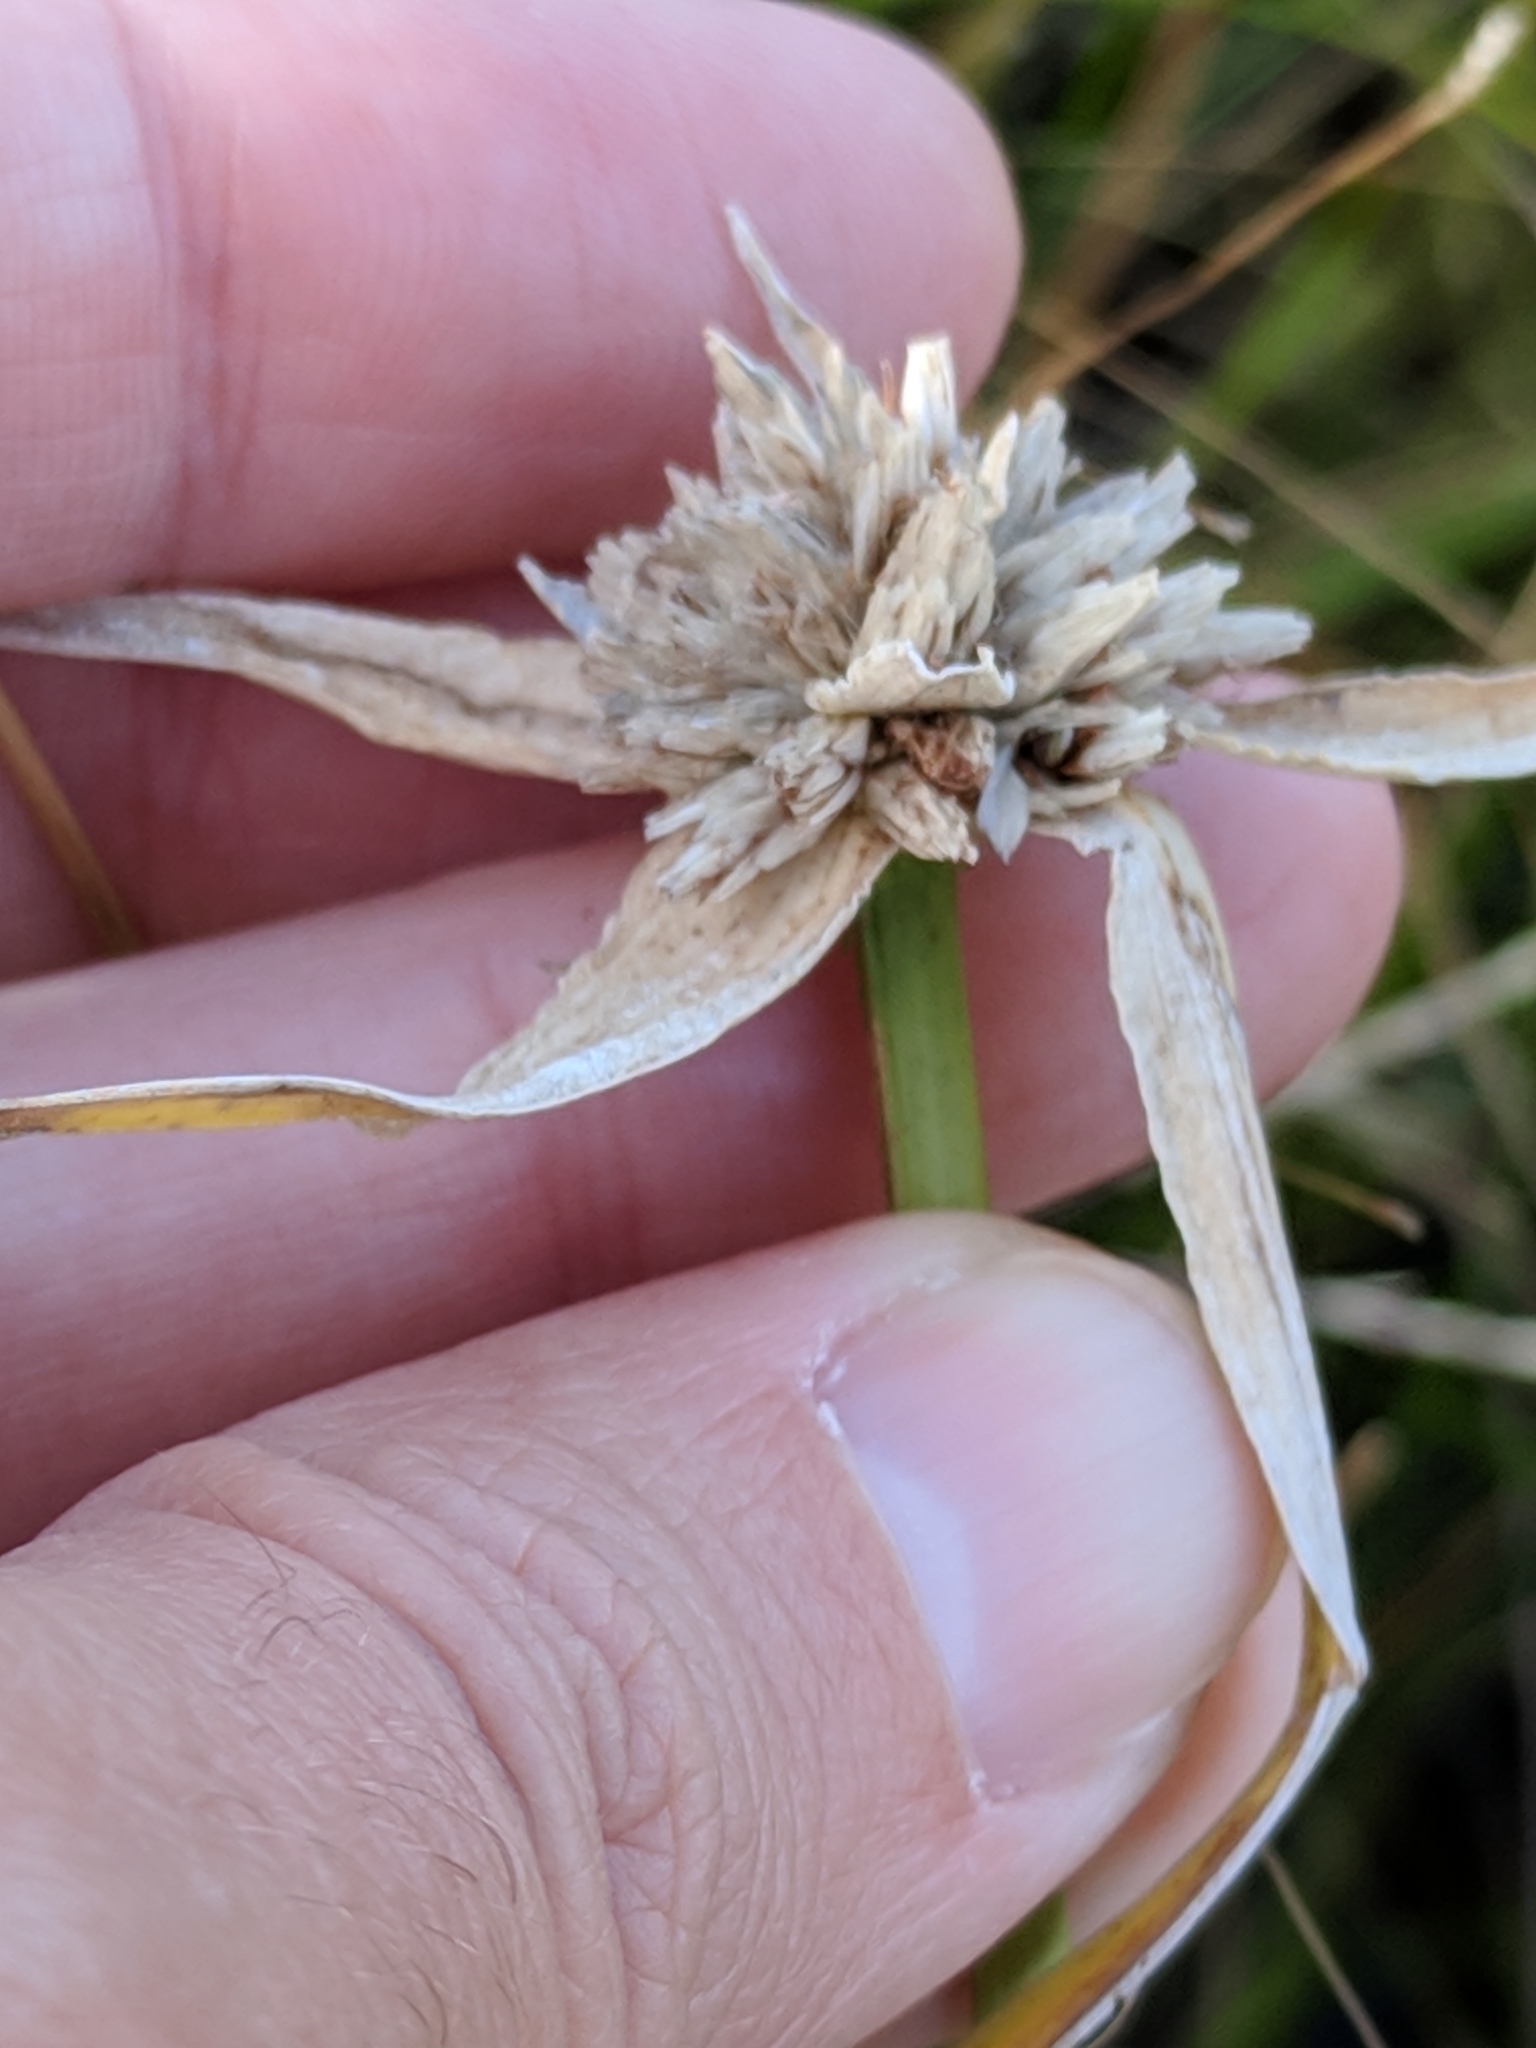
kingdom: Plantae
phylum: Tracheophyta
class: Liliopsida
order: Poales
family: Cyperaceae
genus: Rhynchospora
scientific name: Rhynchospora colorata
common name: Star sedge
